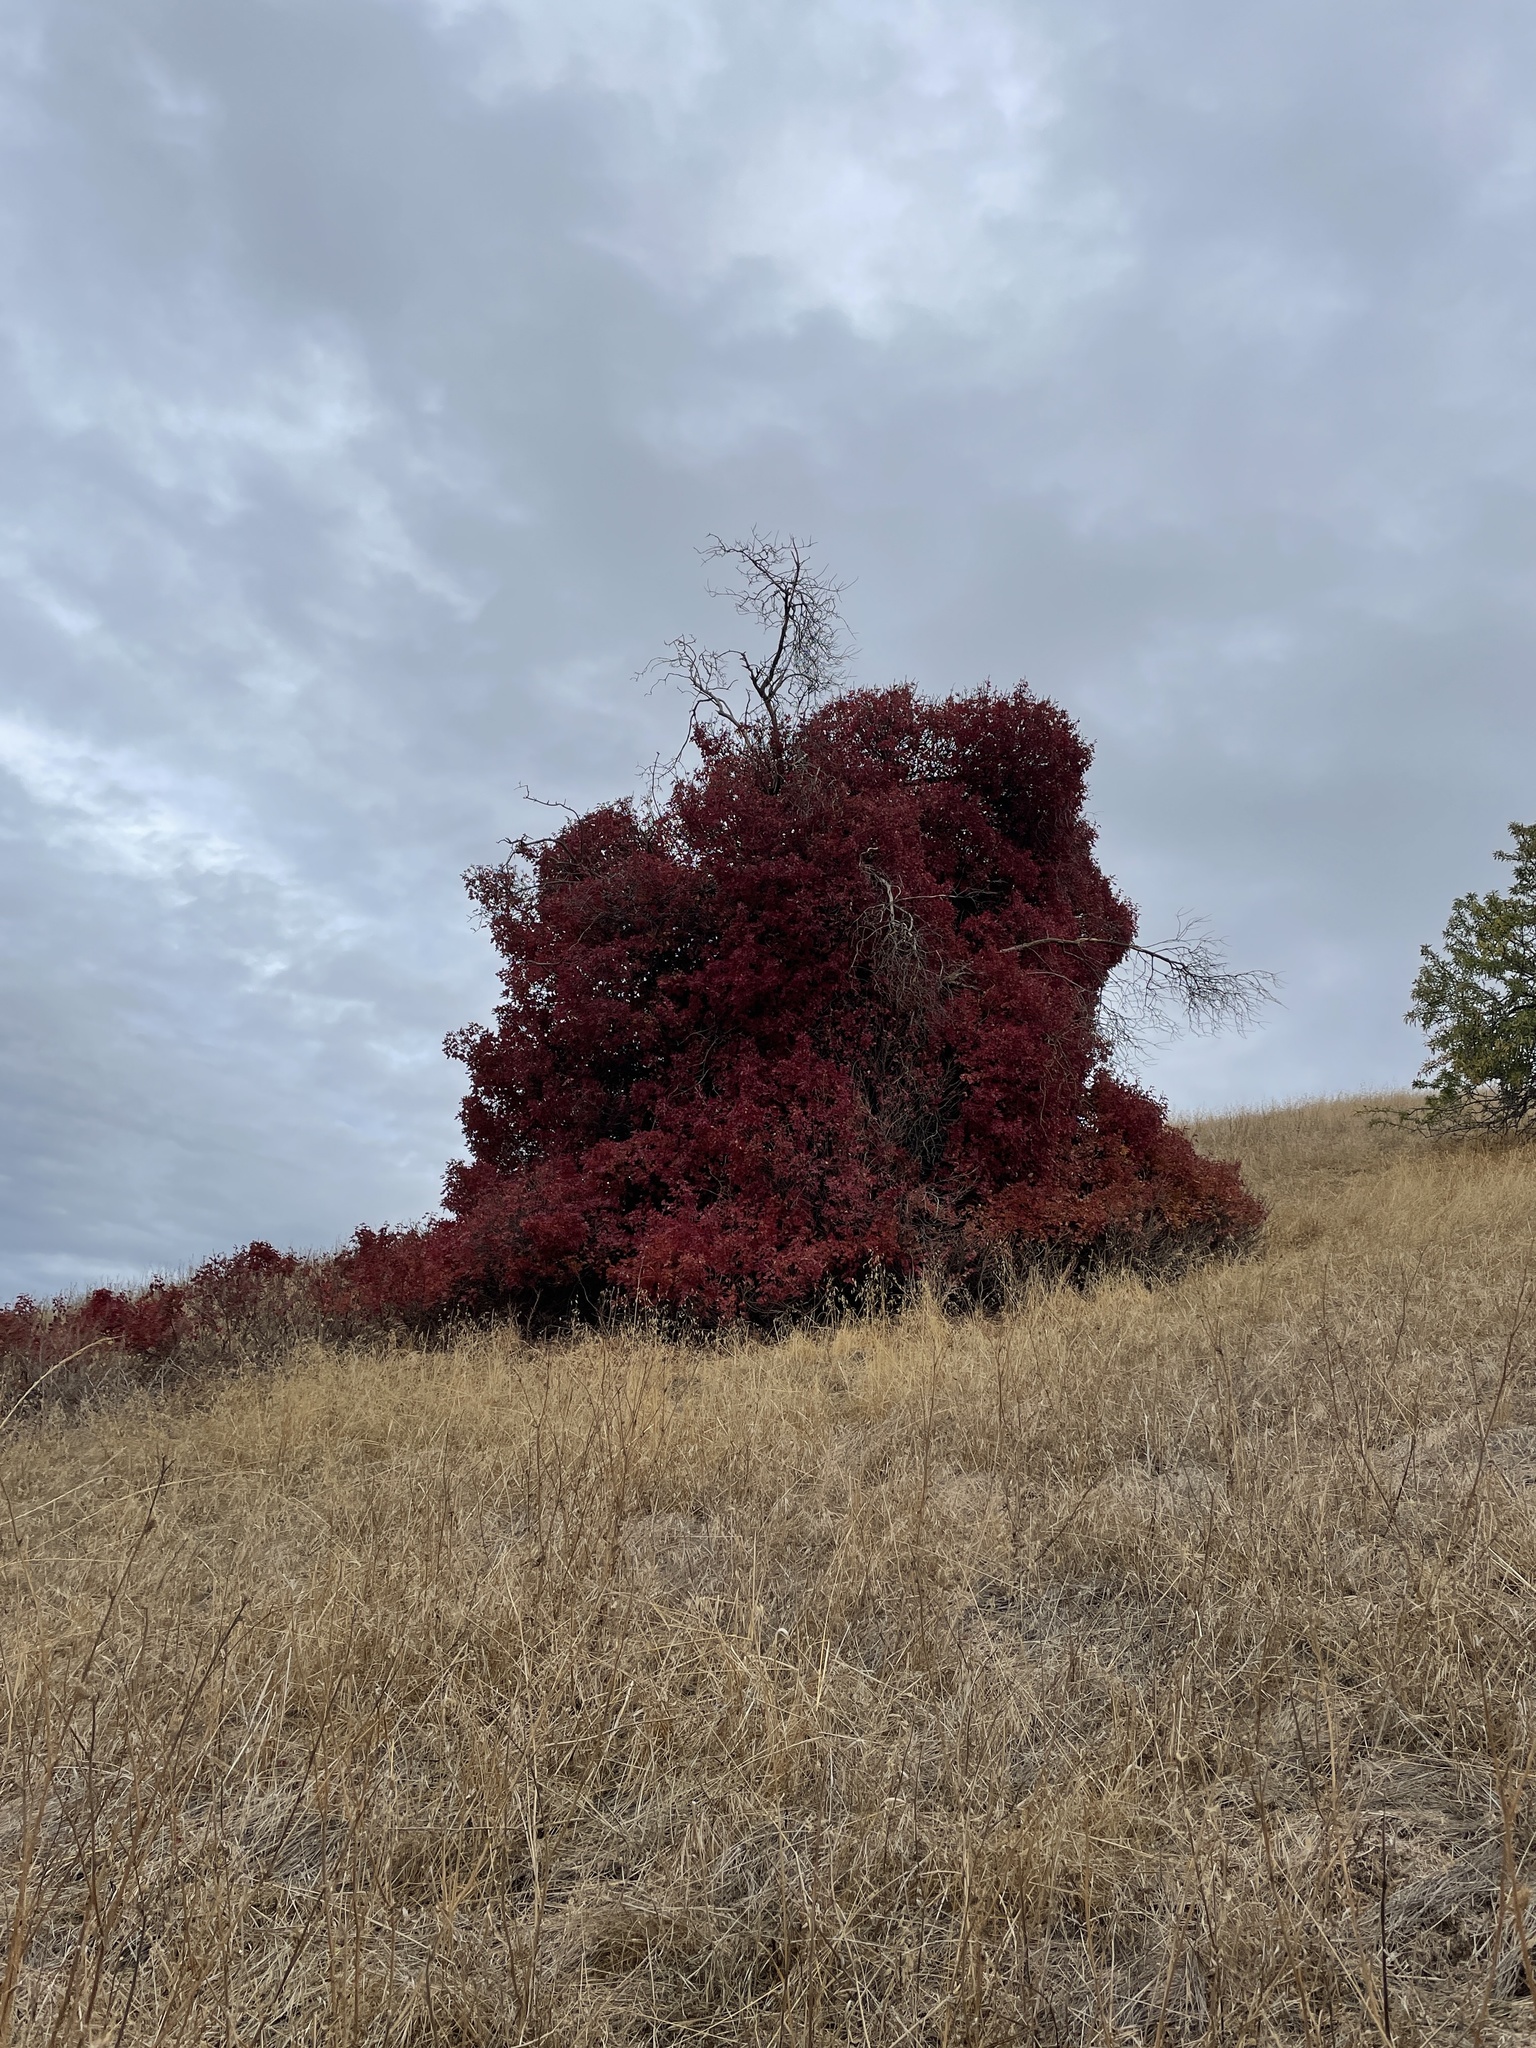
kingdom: Plantae
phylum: Tracheophyta
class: Magnoliopsida
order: Sapindales
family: Anacardiaceae
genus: Toxicodendron
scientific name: Toxicodendron diversilobum
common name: Pacific poison-oak
